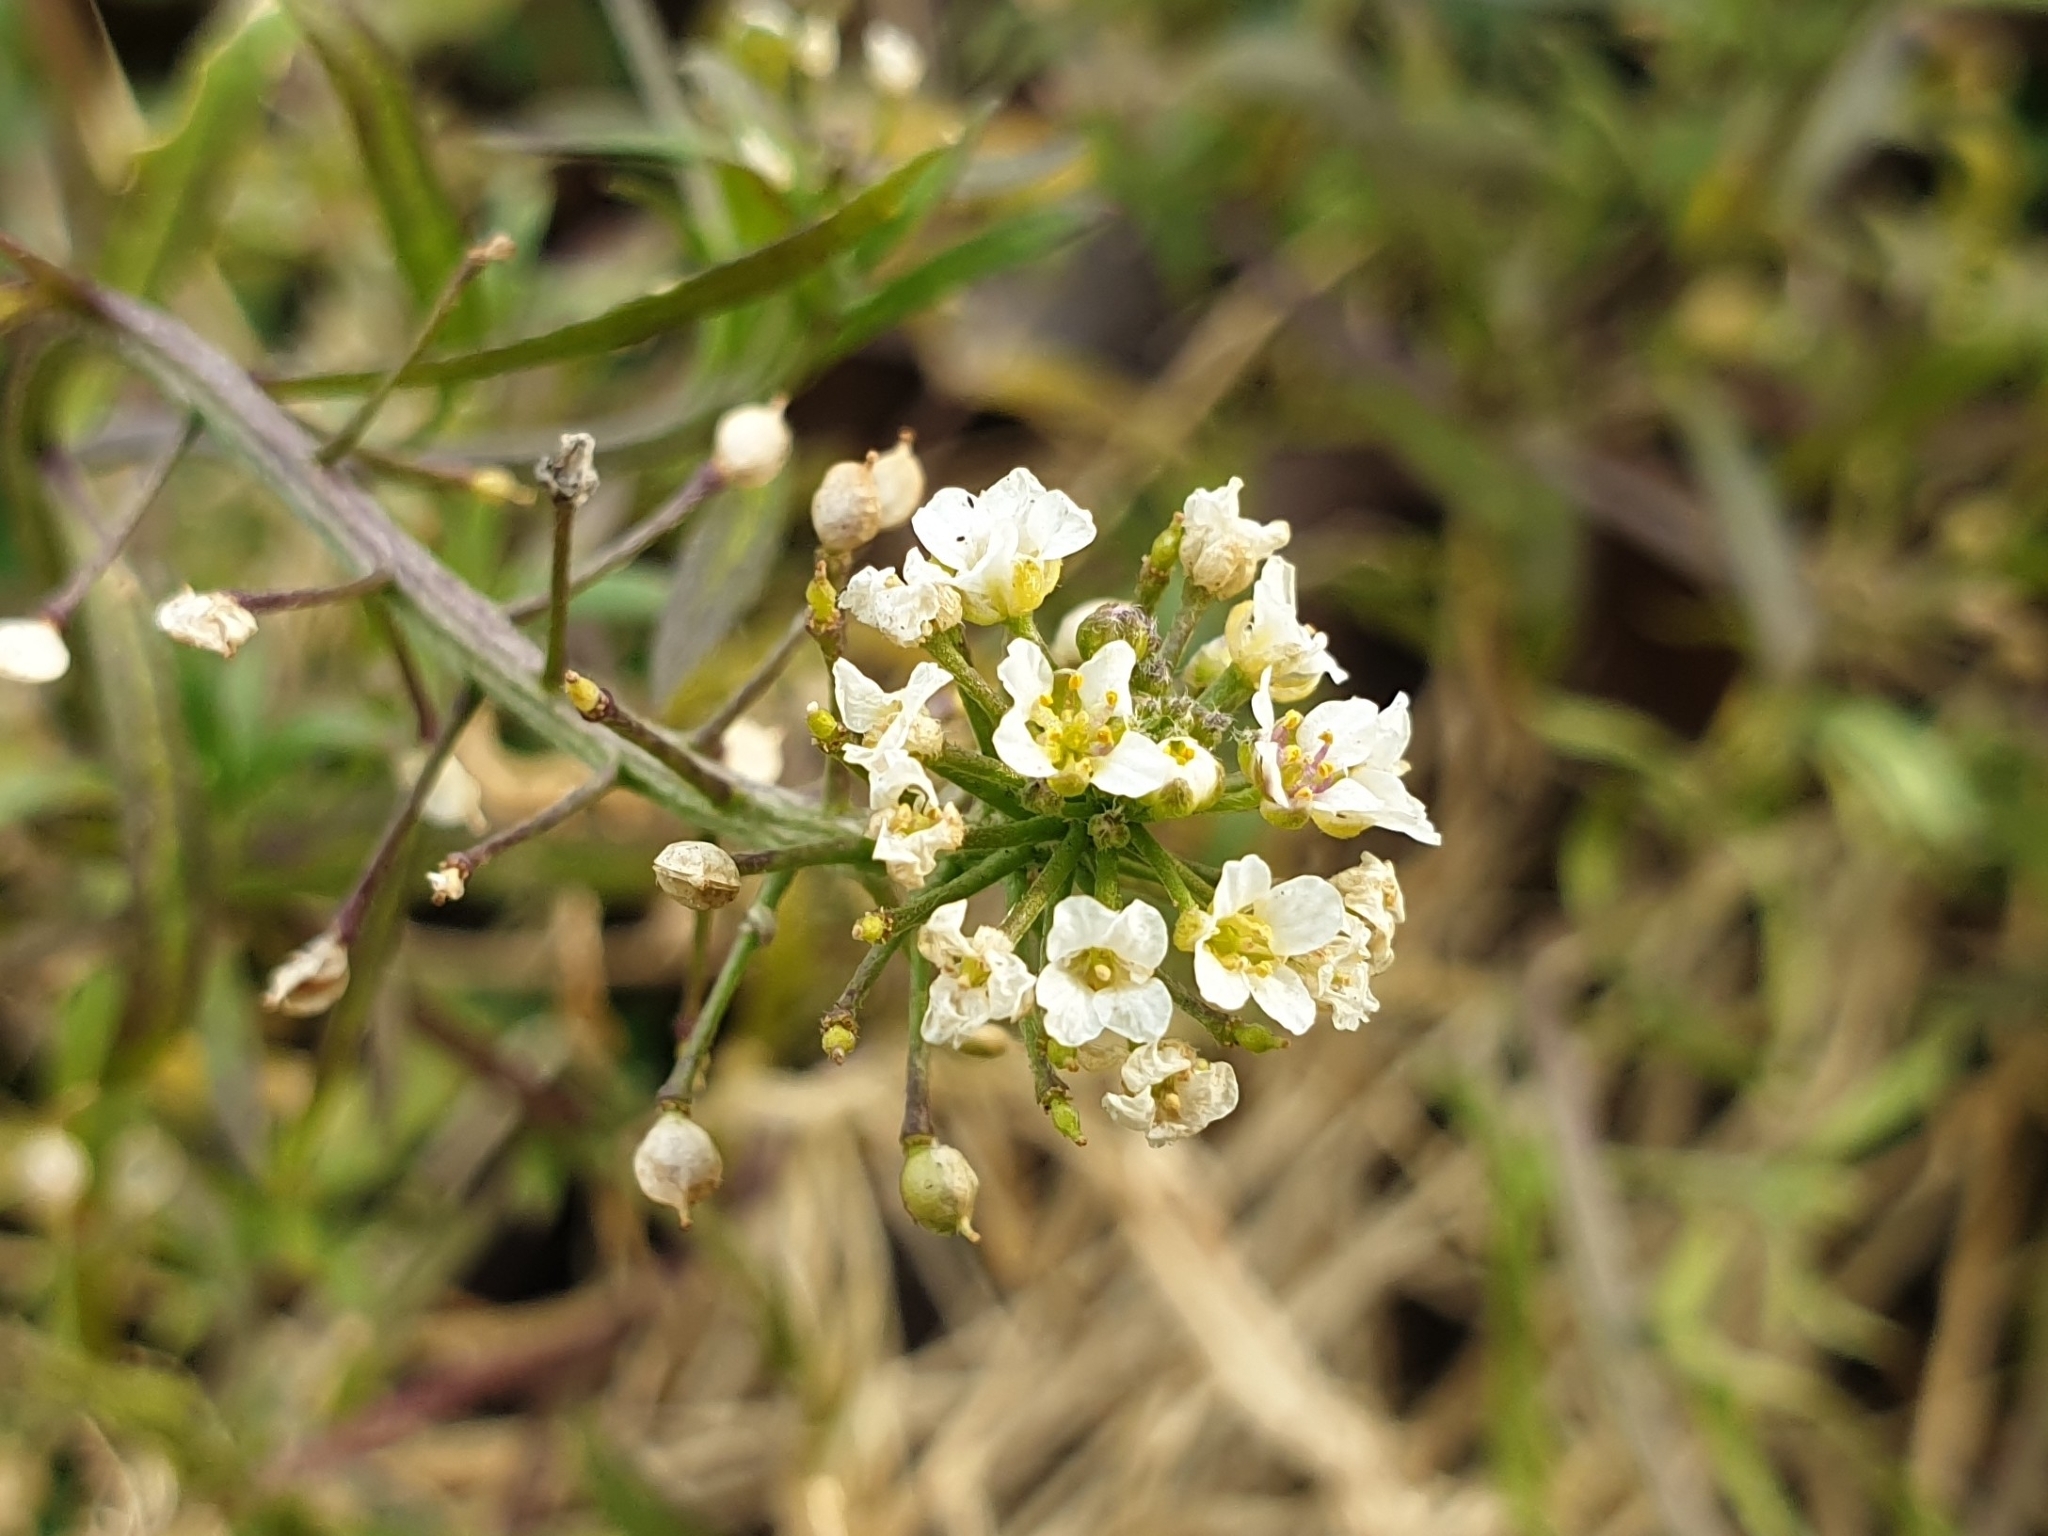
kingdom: Plantae
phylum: Tracheophyta
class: Magnoliopsida
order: Brassicales
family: Brassicaceae
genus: Lobularia
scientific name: Lobularia maritima
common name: Sweet alison
